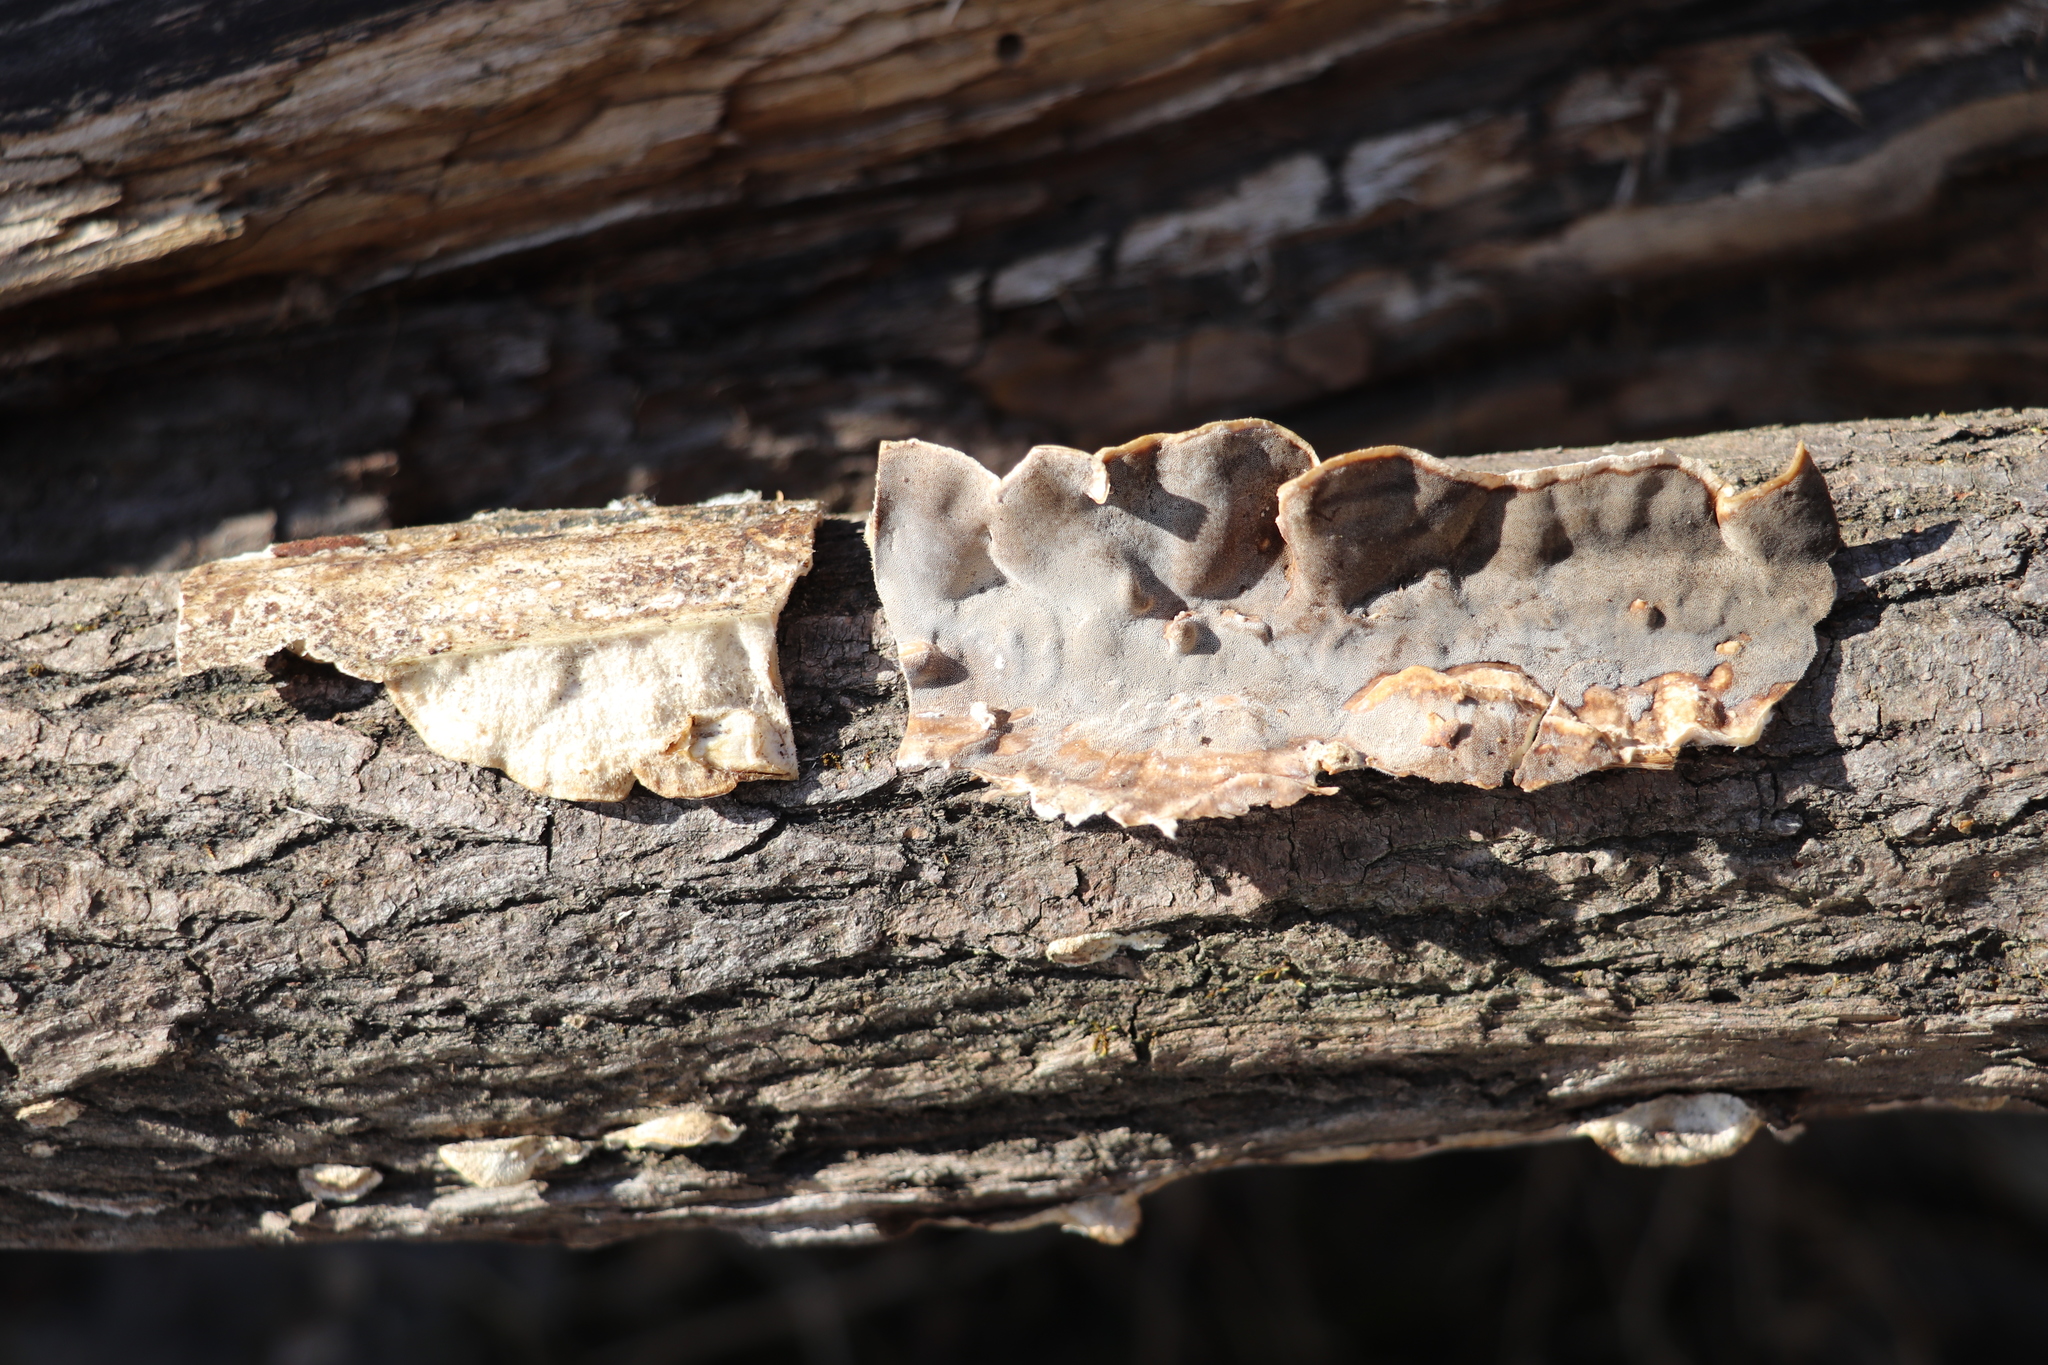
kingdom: Fungi
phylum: Basidiomycota
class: Agaricomycetes
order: Polyporales
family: Phanerochaetaceae
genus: Bjerkandera
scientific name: Bjerkandera adusta
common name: Smoky bracket
